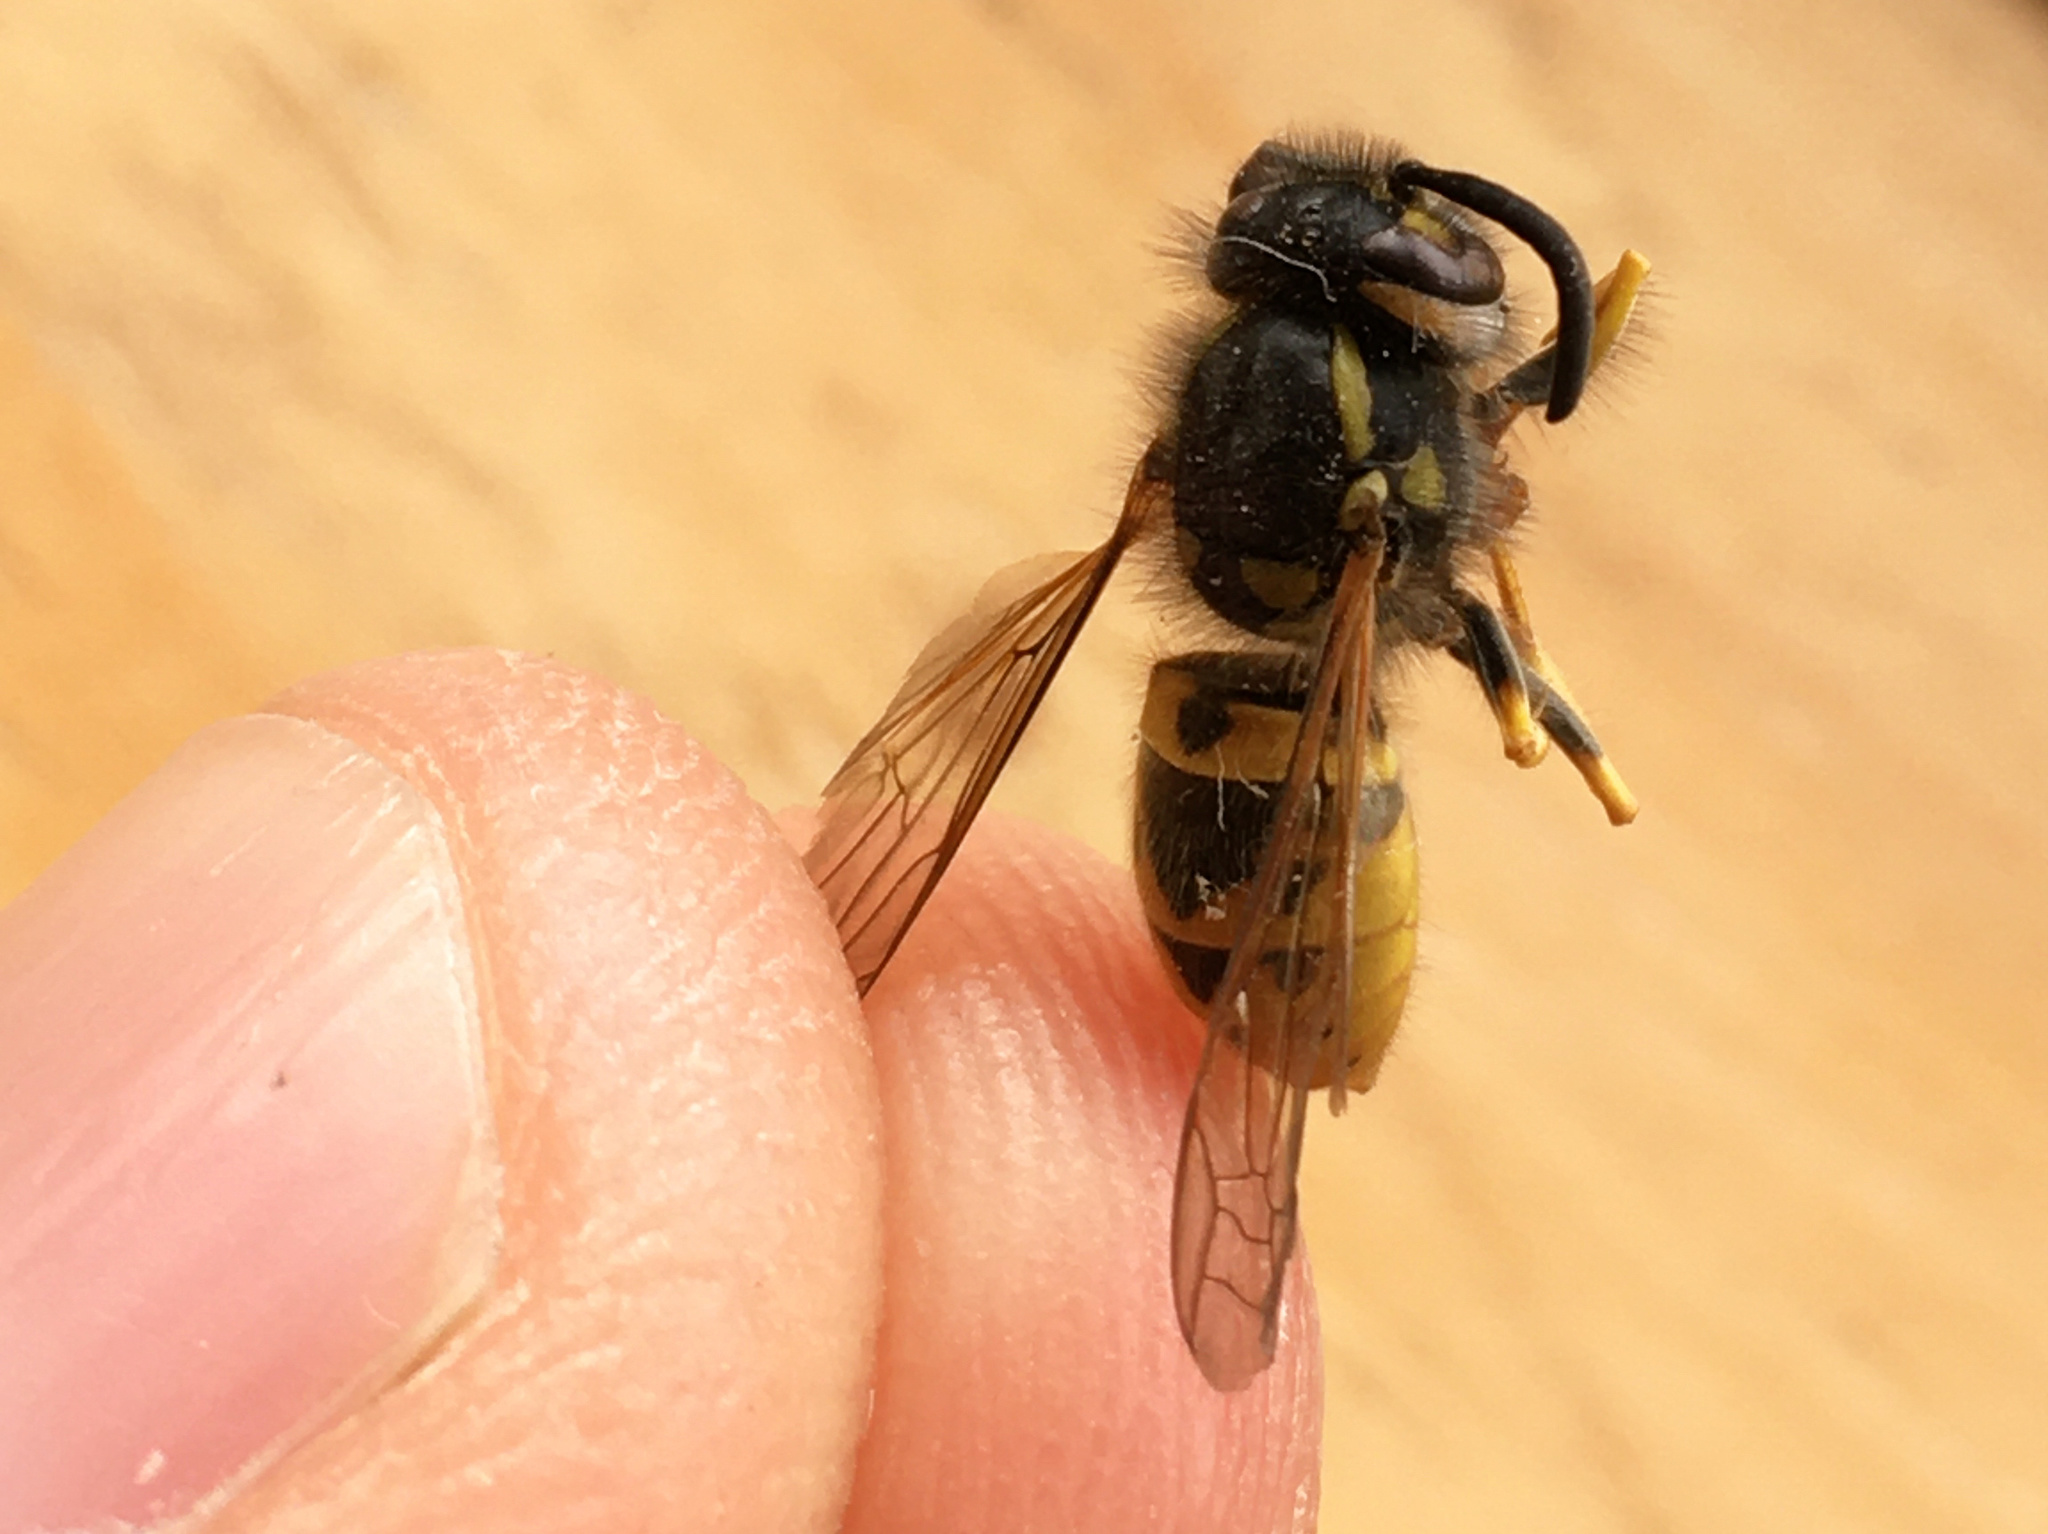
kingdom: Animalia
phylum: Arthropoda
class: Insecta
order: Hymenoptera
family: Vespidae
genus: Vespula
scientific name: Vespula germanica
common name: German wasp
